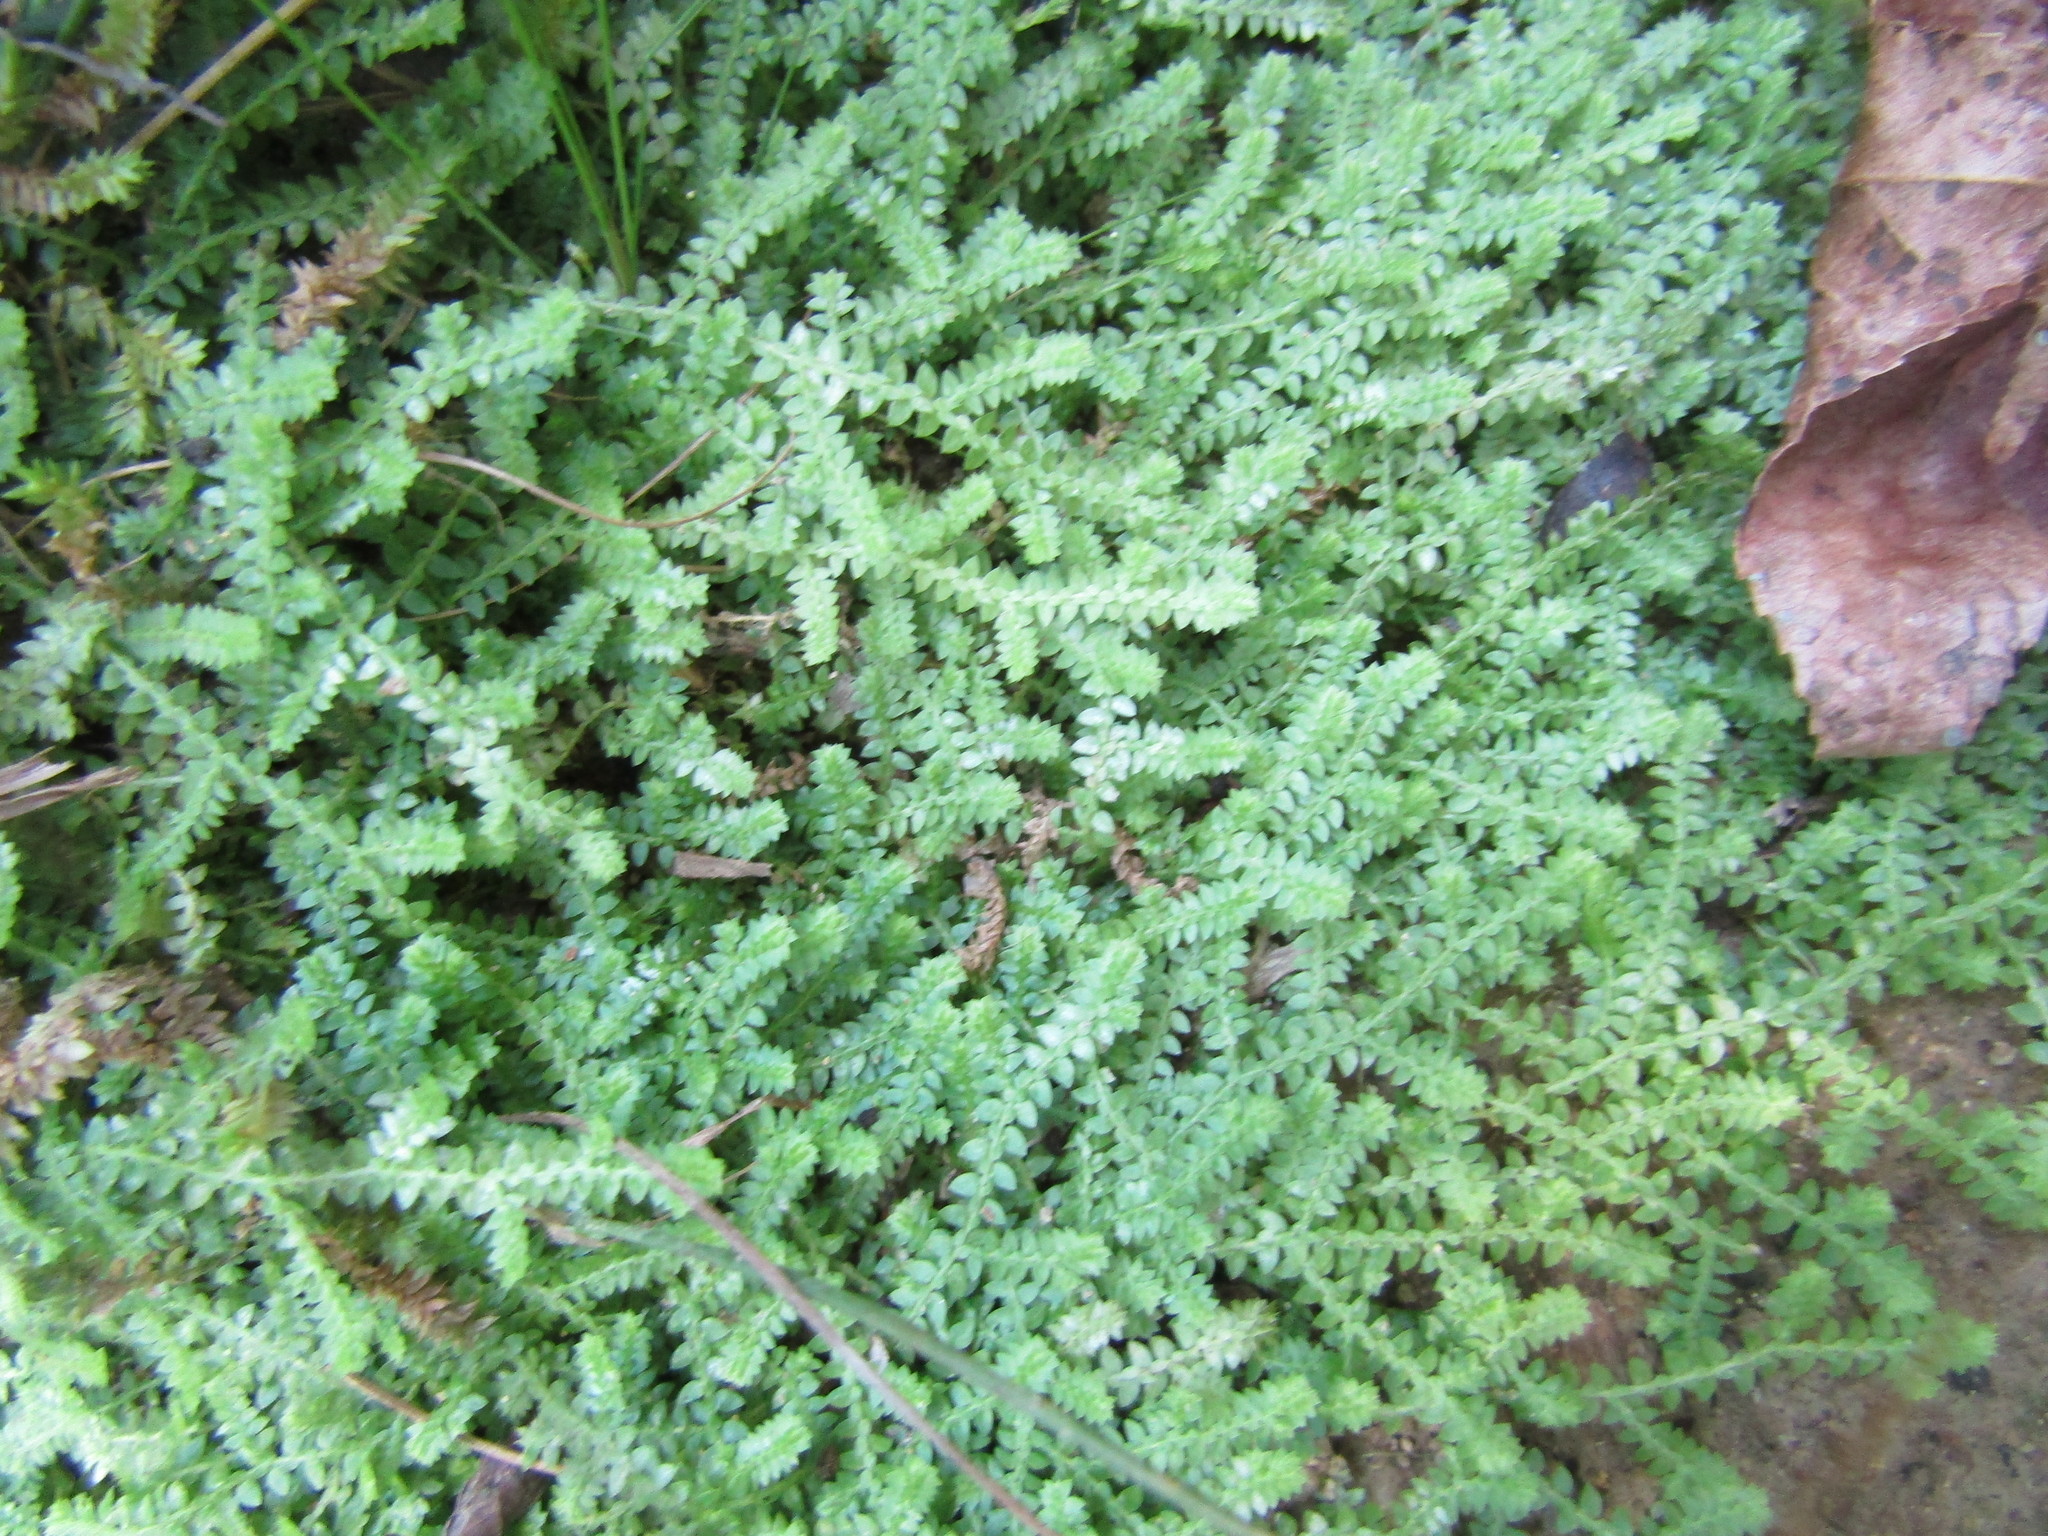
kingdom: Plantae
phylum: Tracheophyta
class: Lycopodiopsida
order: Selaginellales
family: Selaginellaceae
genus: Selaginella
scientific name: Selaginella apoda
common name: Creeping spikemoss
